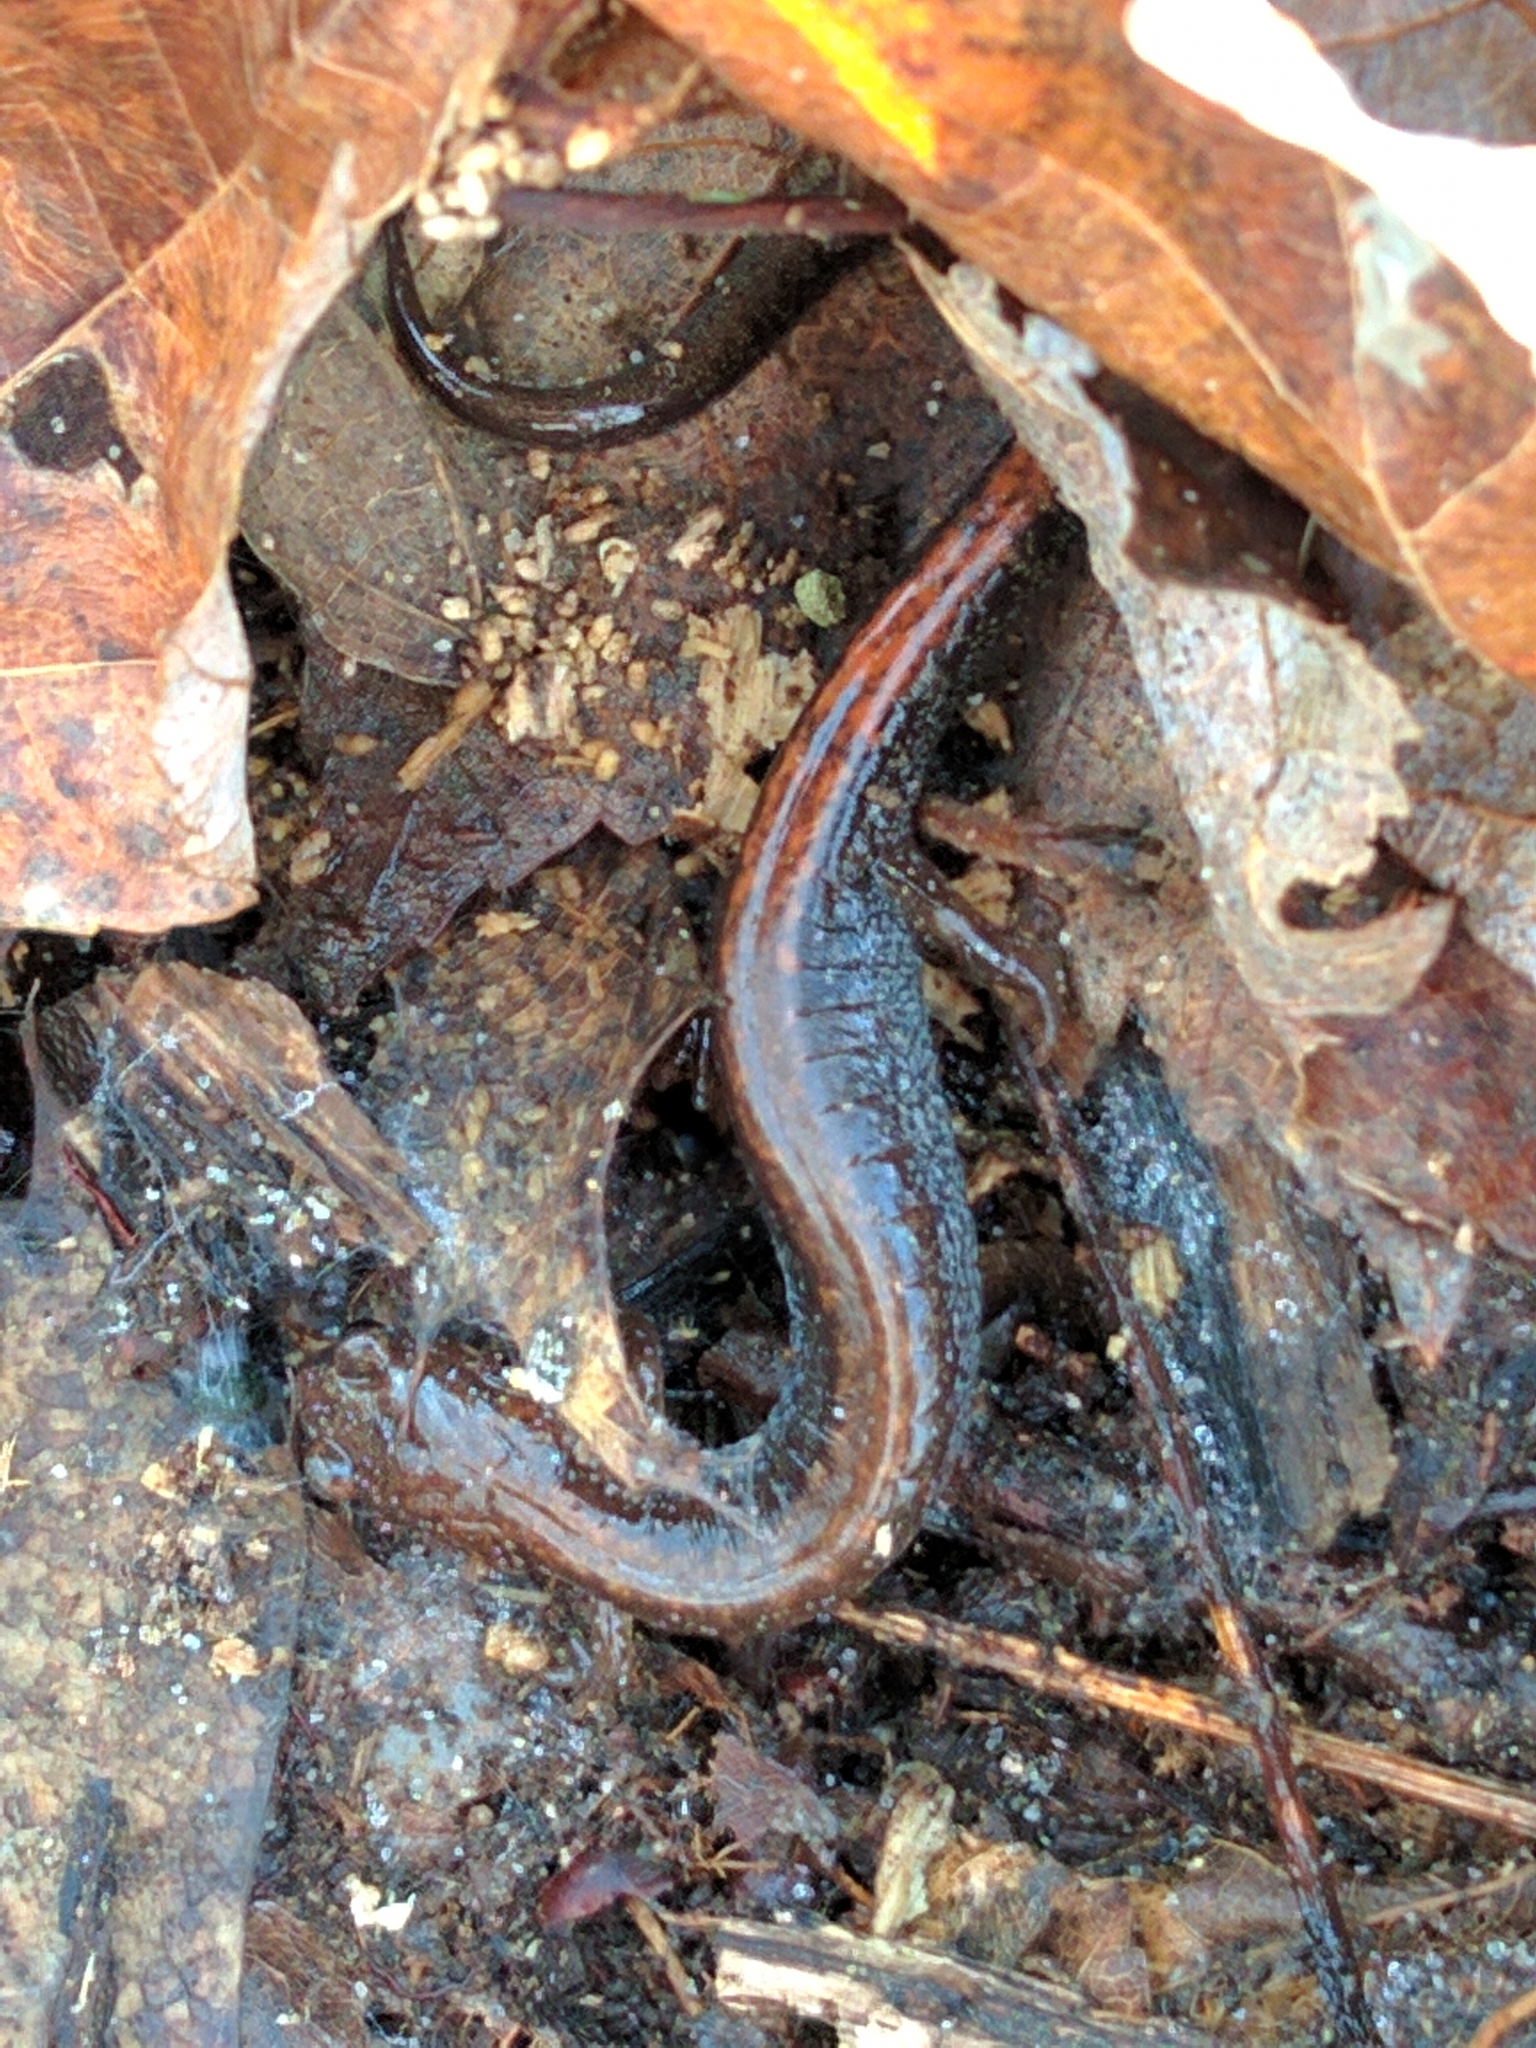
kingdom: Animalia
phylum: Chordata
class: Amphibia
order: Caudata
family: Plethodontidae
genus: Plethodon
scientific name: Plethodon cinereus
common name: Redback salamander
